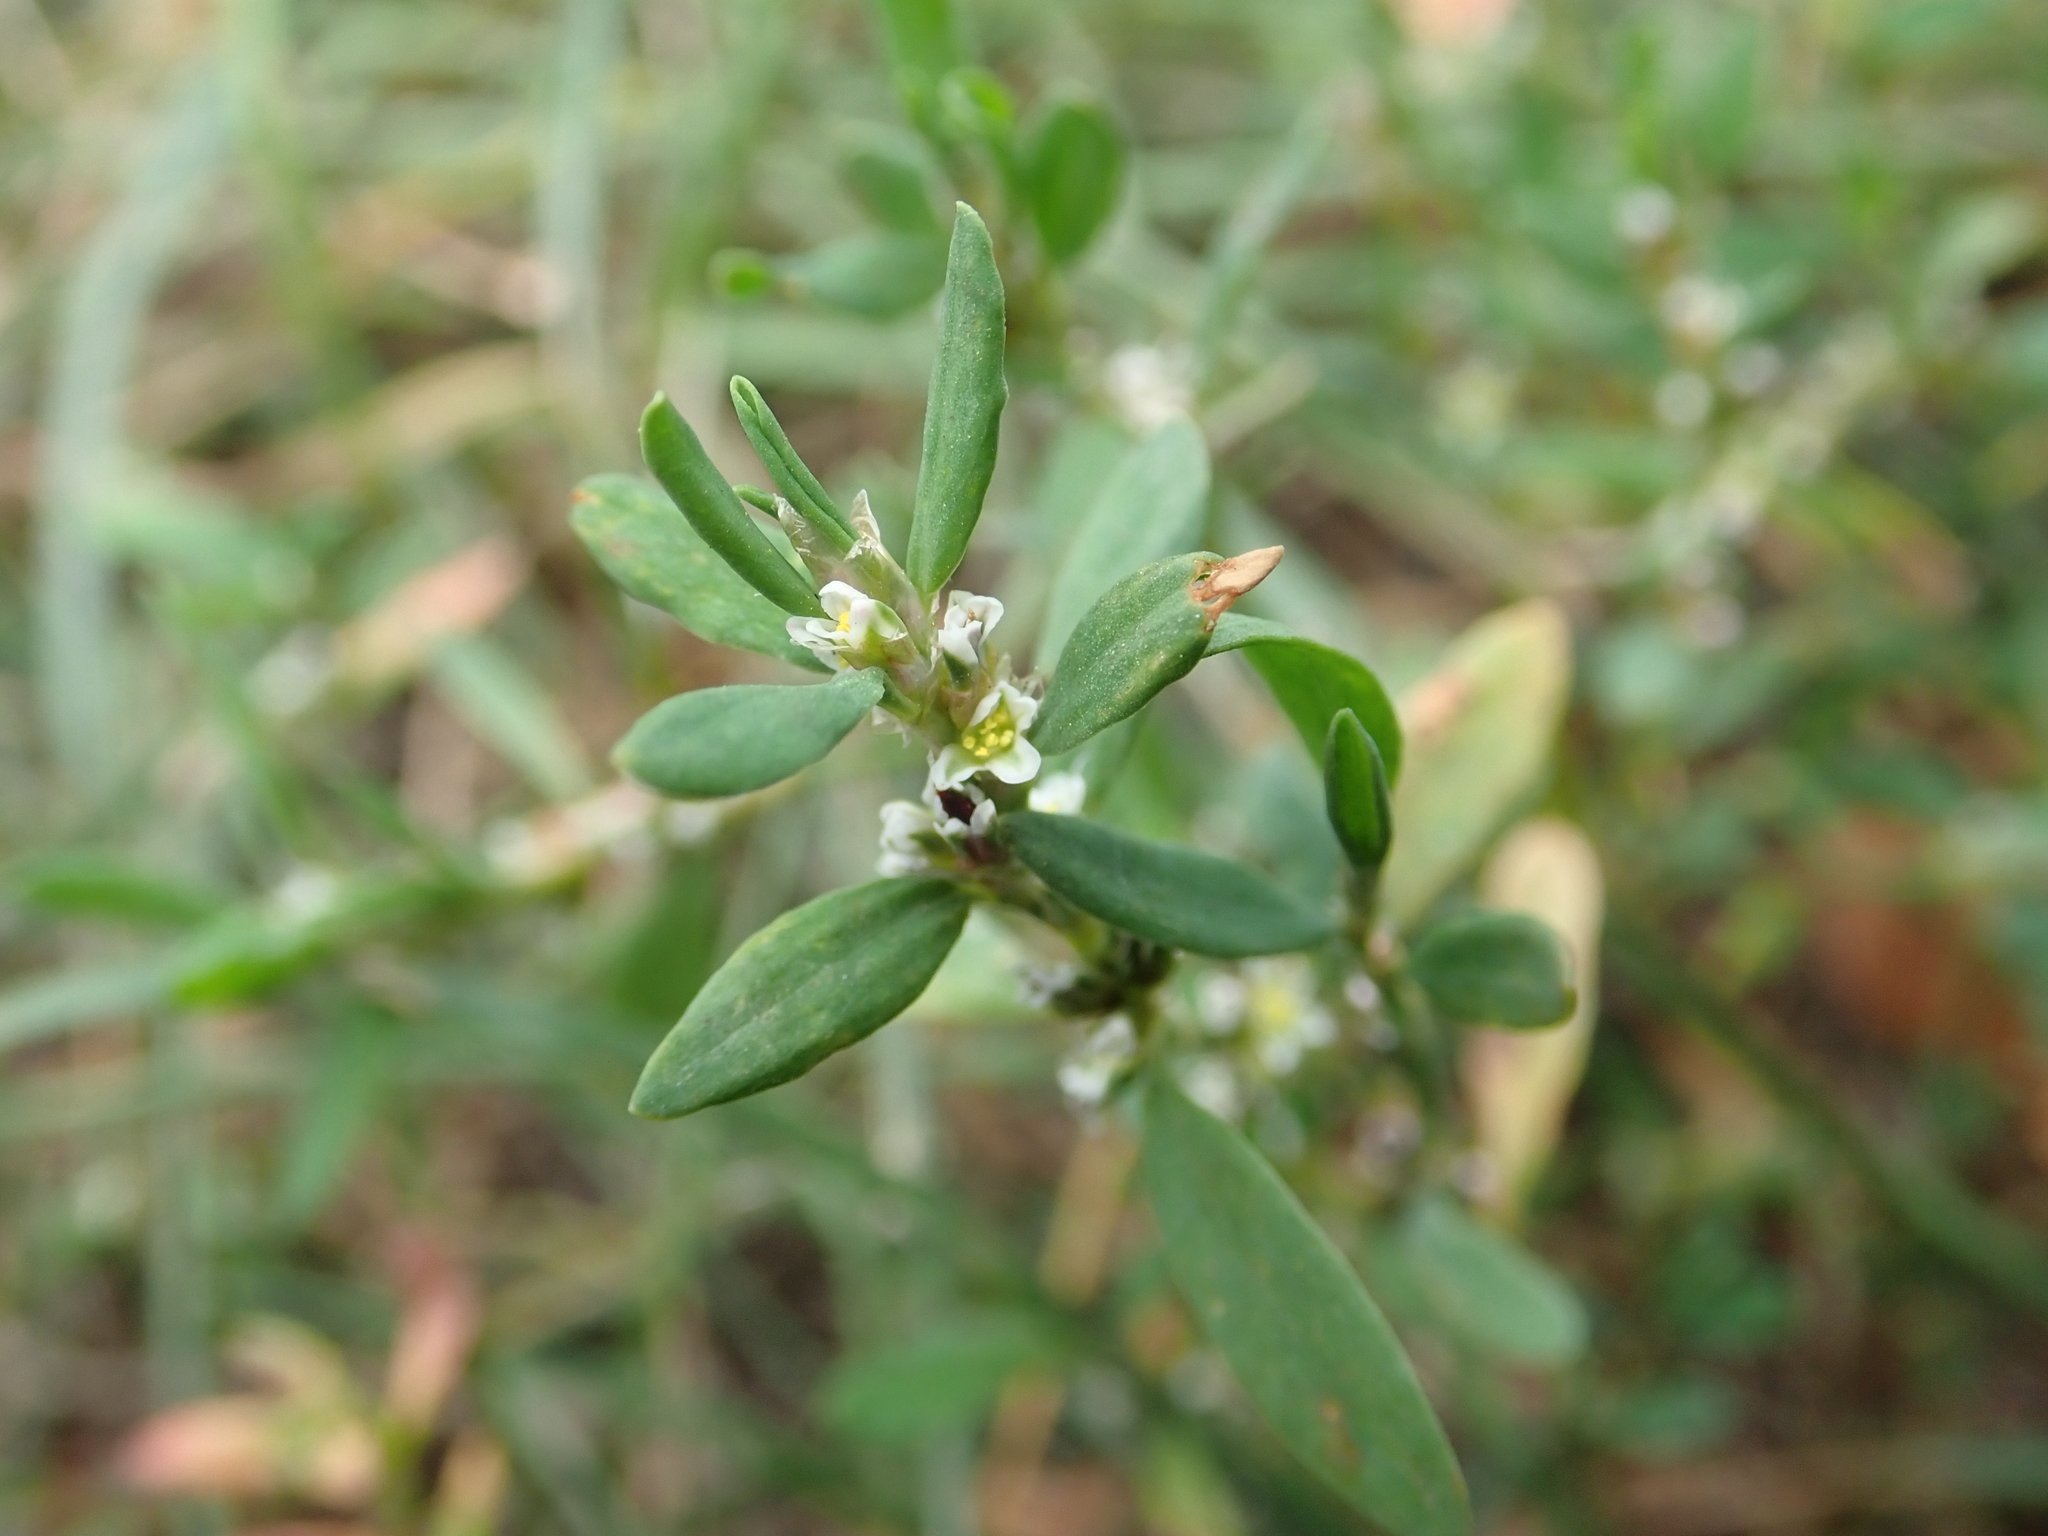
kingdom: Plantae
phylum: Tracheophyta
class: Magnoliopsida
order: Caryophyllales
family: Polygonaceae
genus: Polygonum
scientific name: Polygonum aviculare
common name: Prostrate knotweed
